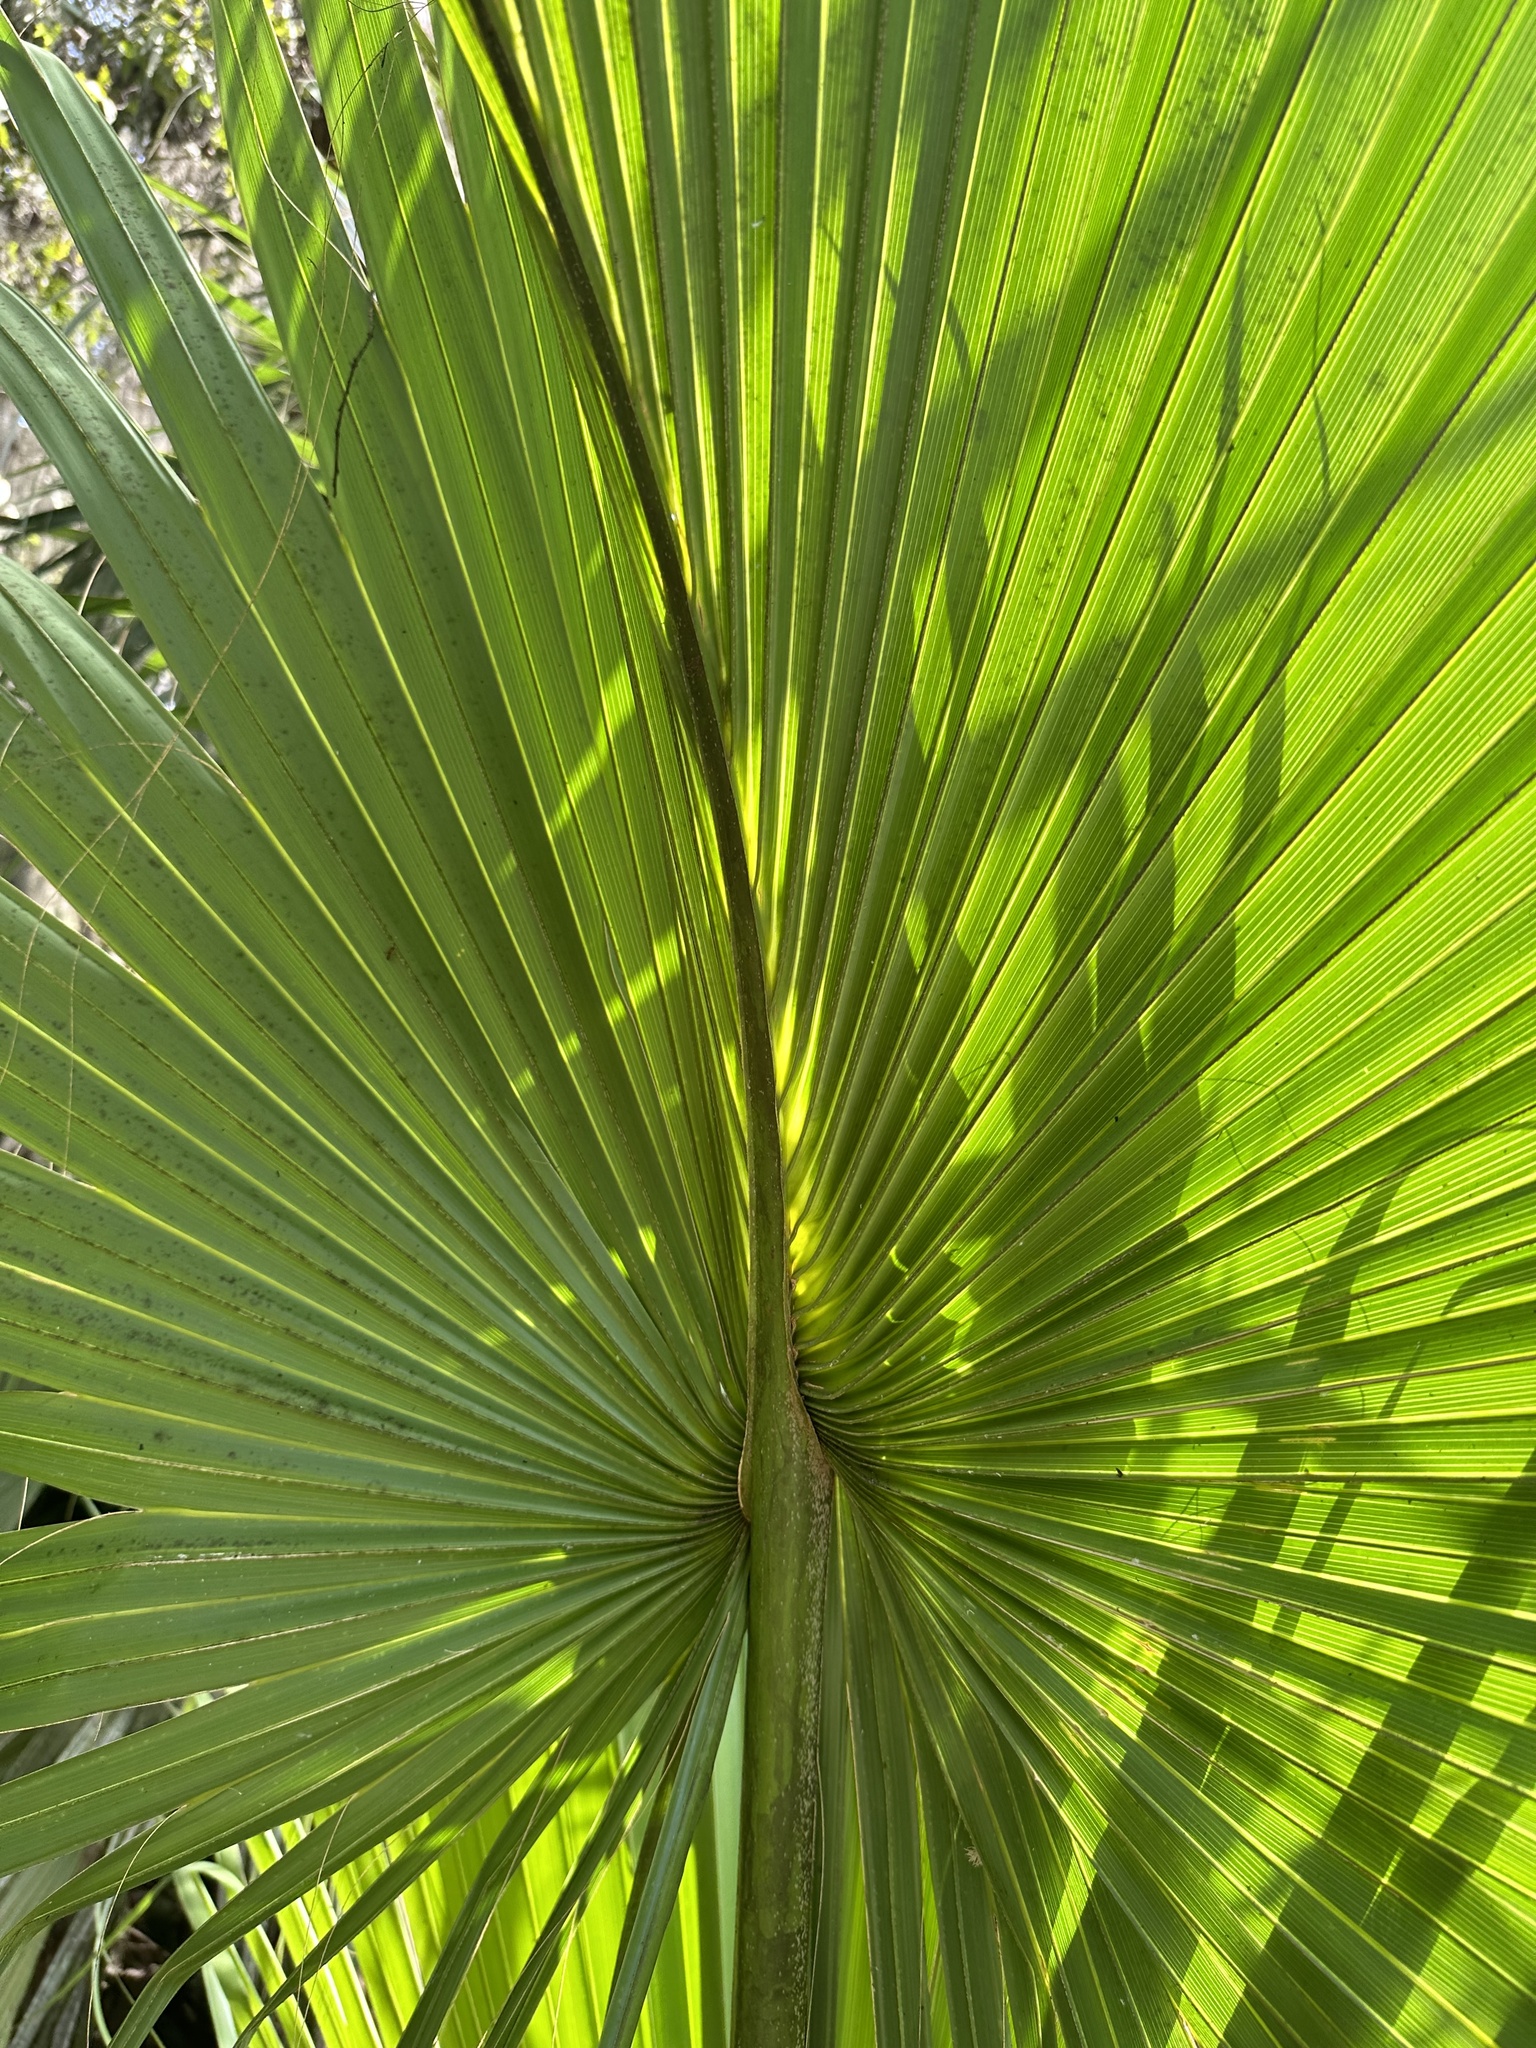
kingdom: Plantae
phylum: Tracheophyta
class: Liliopsida
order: Arecales
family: Arecaceae
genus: Sabal
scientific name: Sabal palmetto
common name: Blue palmetto
